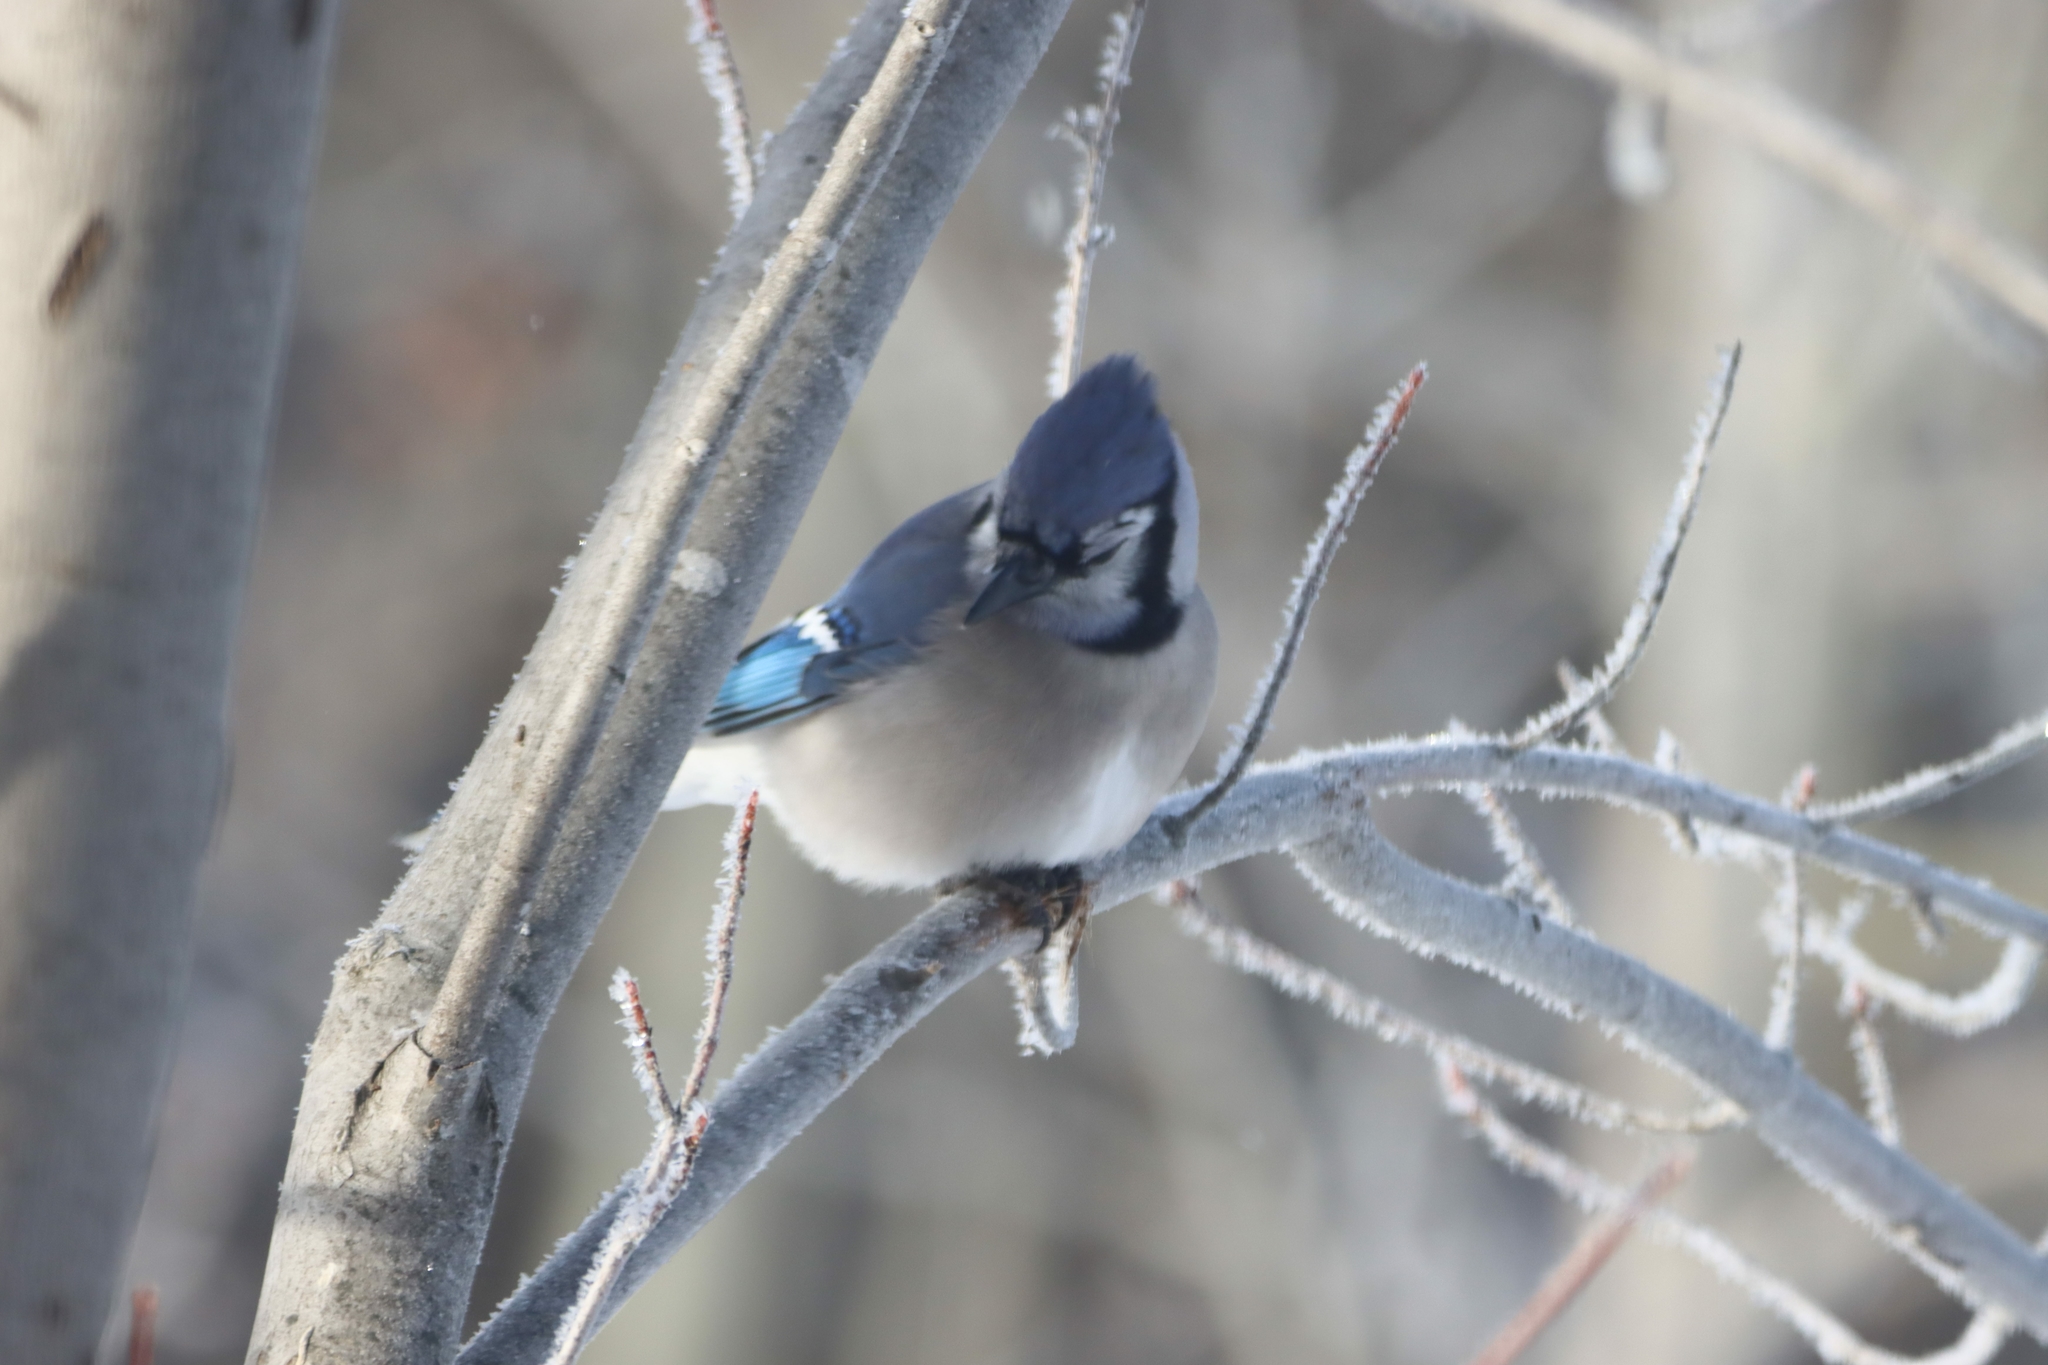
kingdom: Animalia
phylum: Chordata
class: Aves
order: Passeriformes
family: Corvidae
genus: Cyanocitta
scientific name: Cyanocitta cristata
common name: Blue jay
